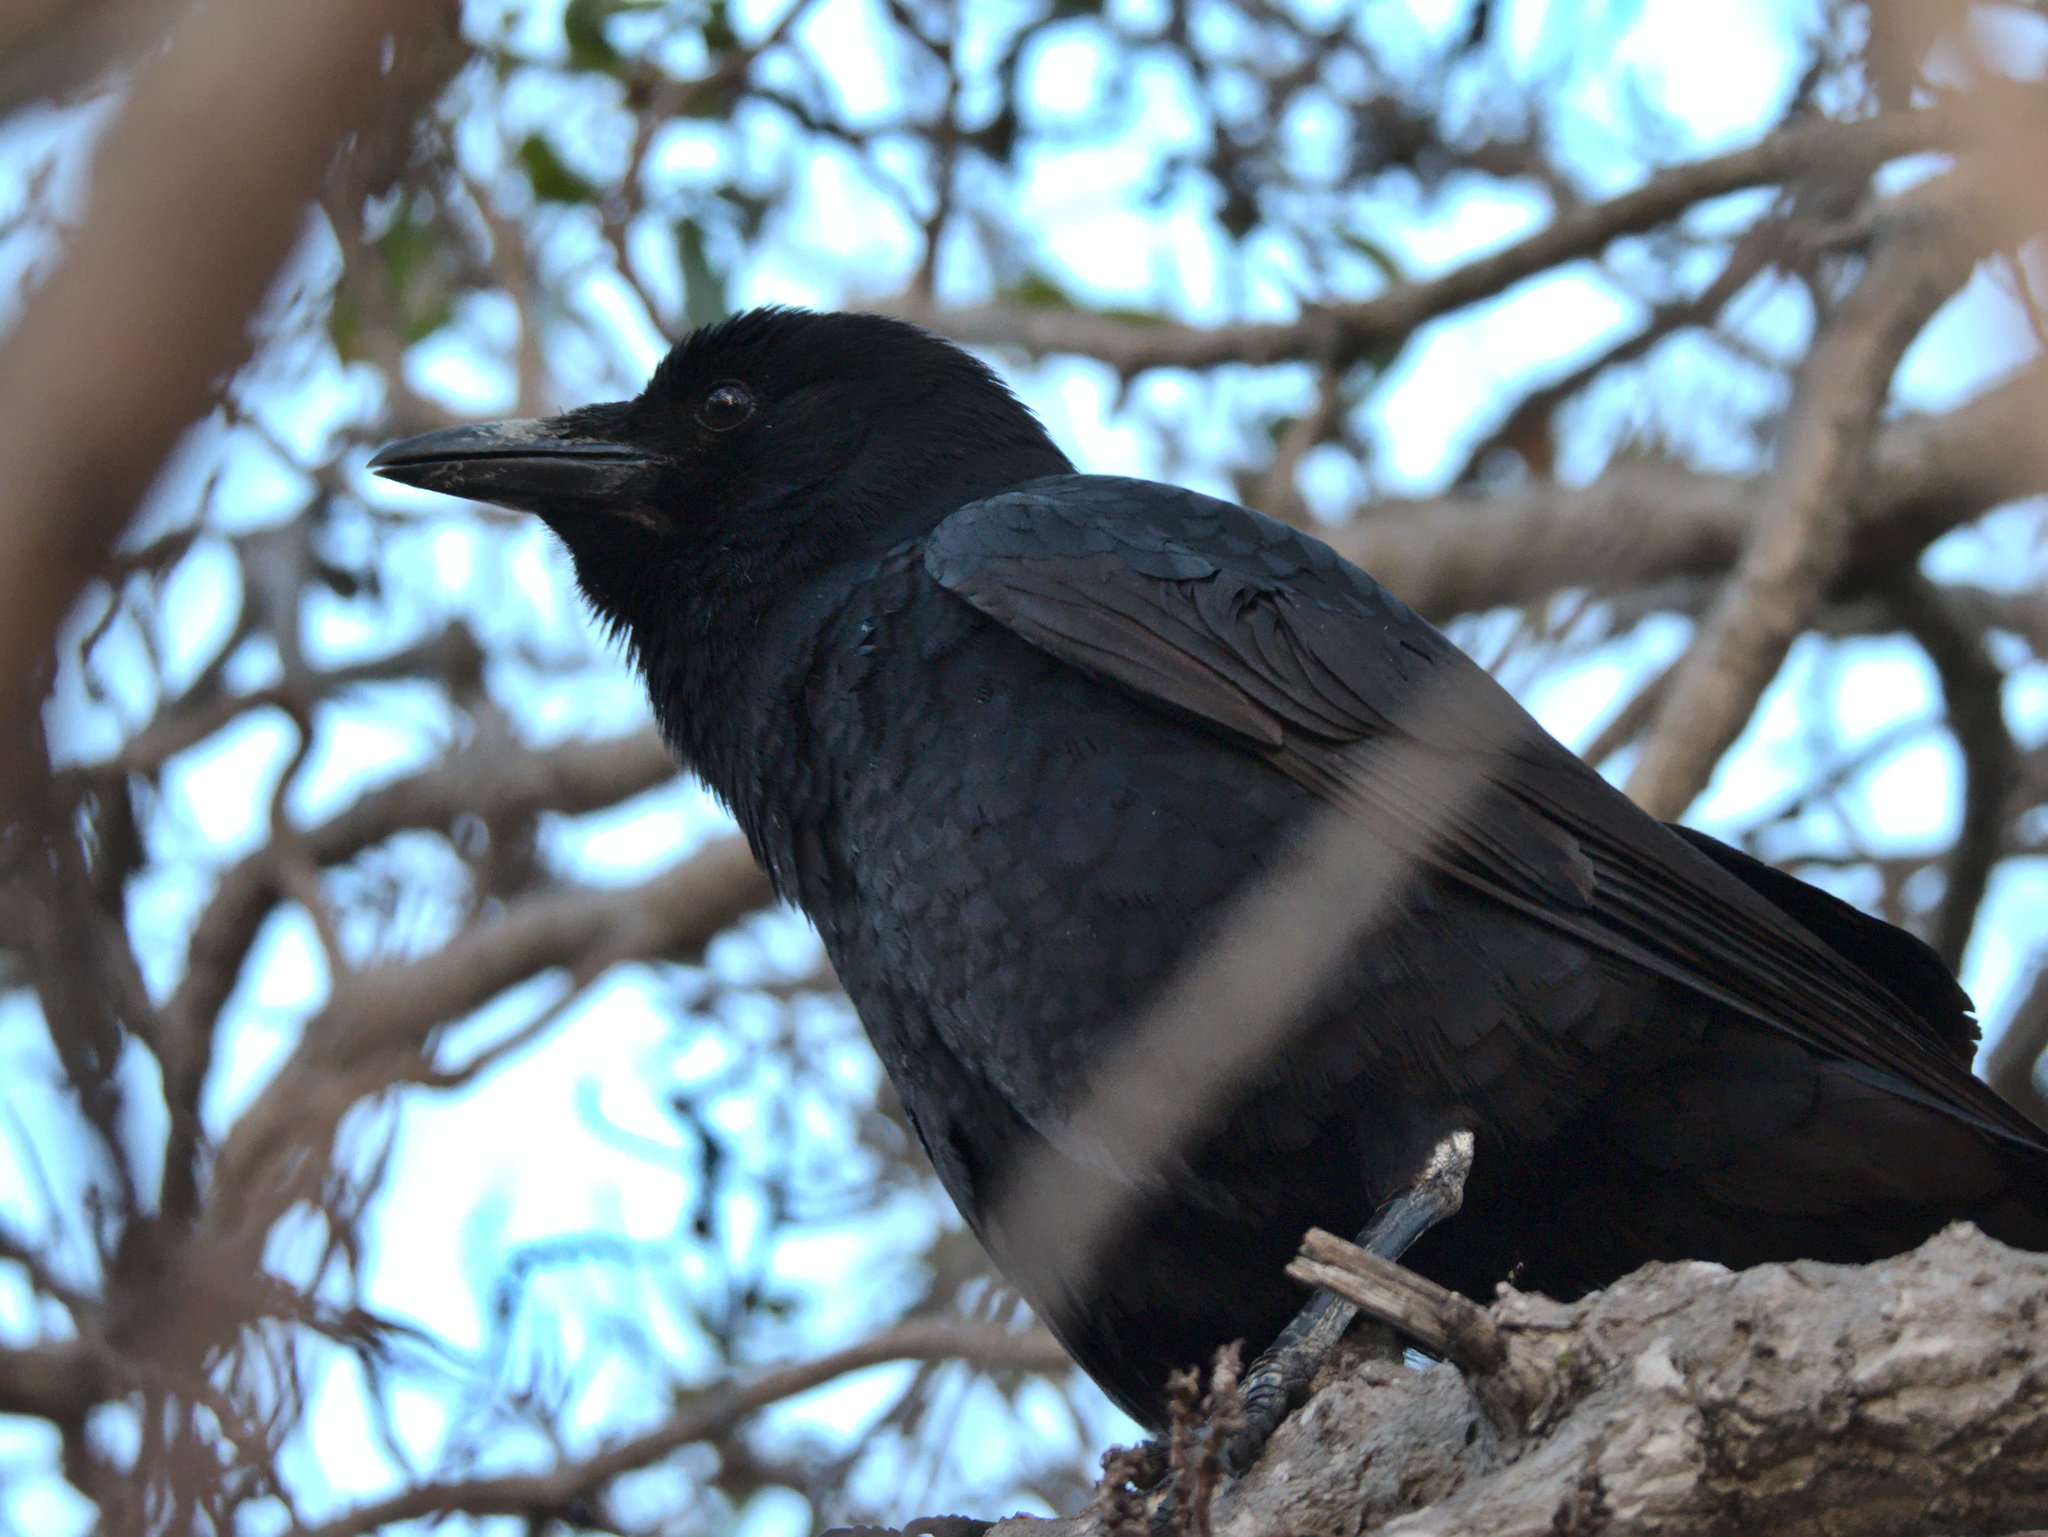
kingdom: Animalia
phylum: Chordata
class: Aves
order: Passeriformes
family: Corvidae
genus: Corvus
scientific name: Corvus brachyrhynchos
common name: American crow
